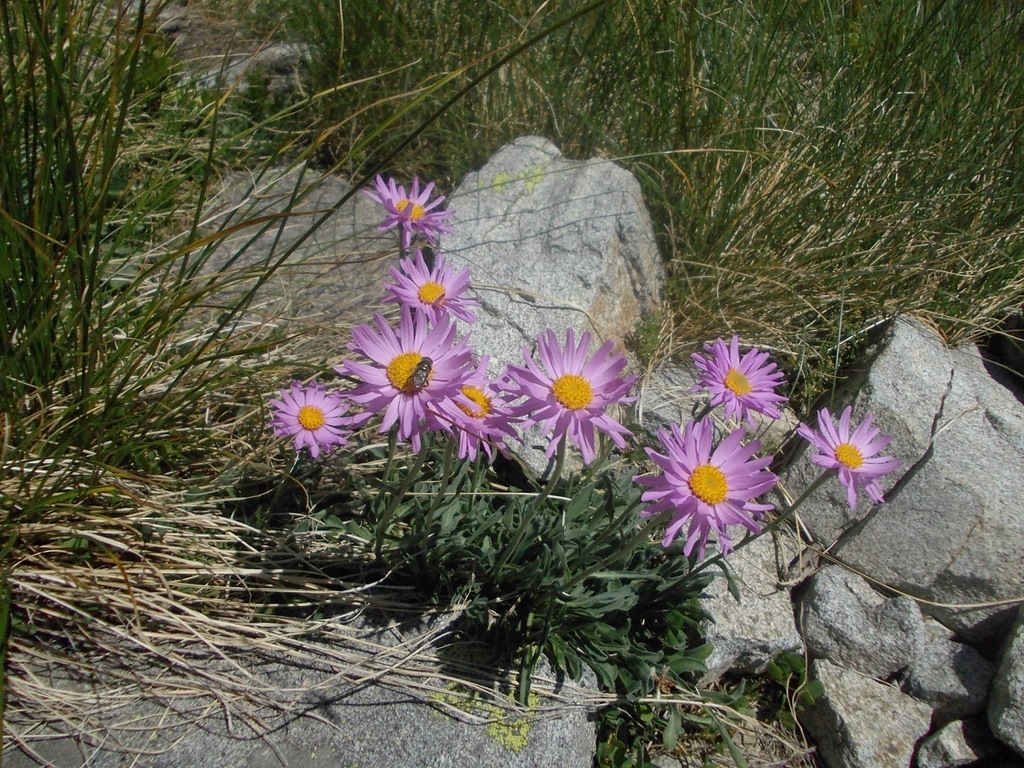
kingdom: Plantae
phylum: Tracheophyta
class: Magnoliopsida
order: Asterales
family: Asteraceae
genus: Aster
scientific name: Aster alpinus
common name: Alpine aster
